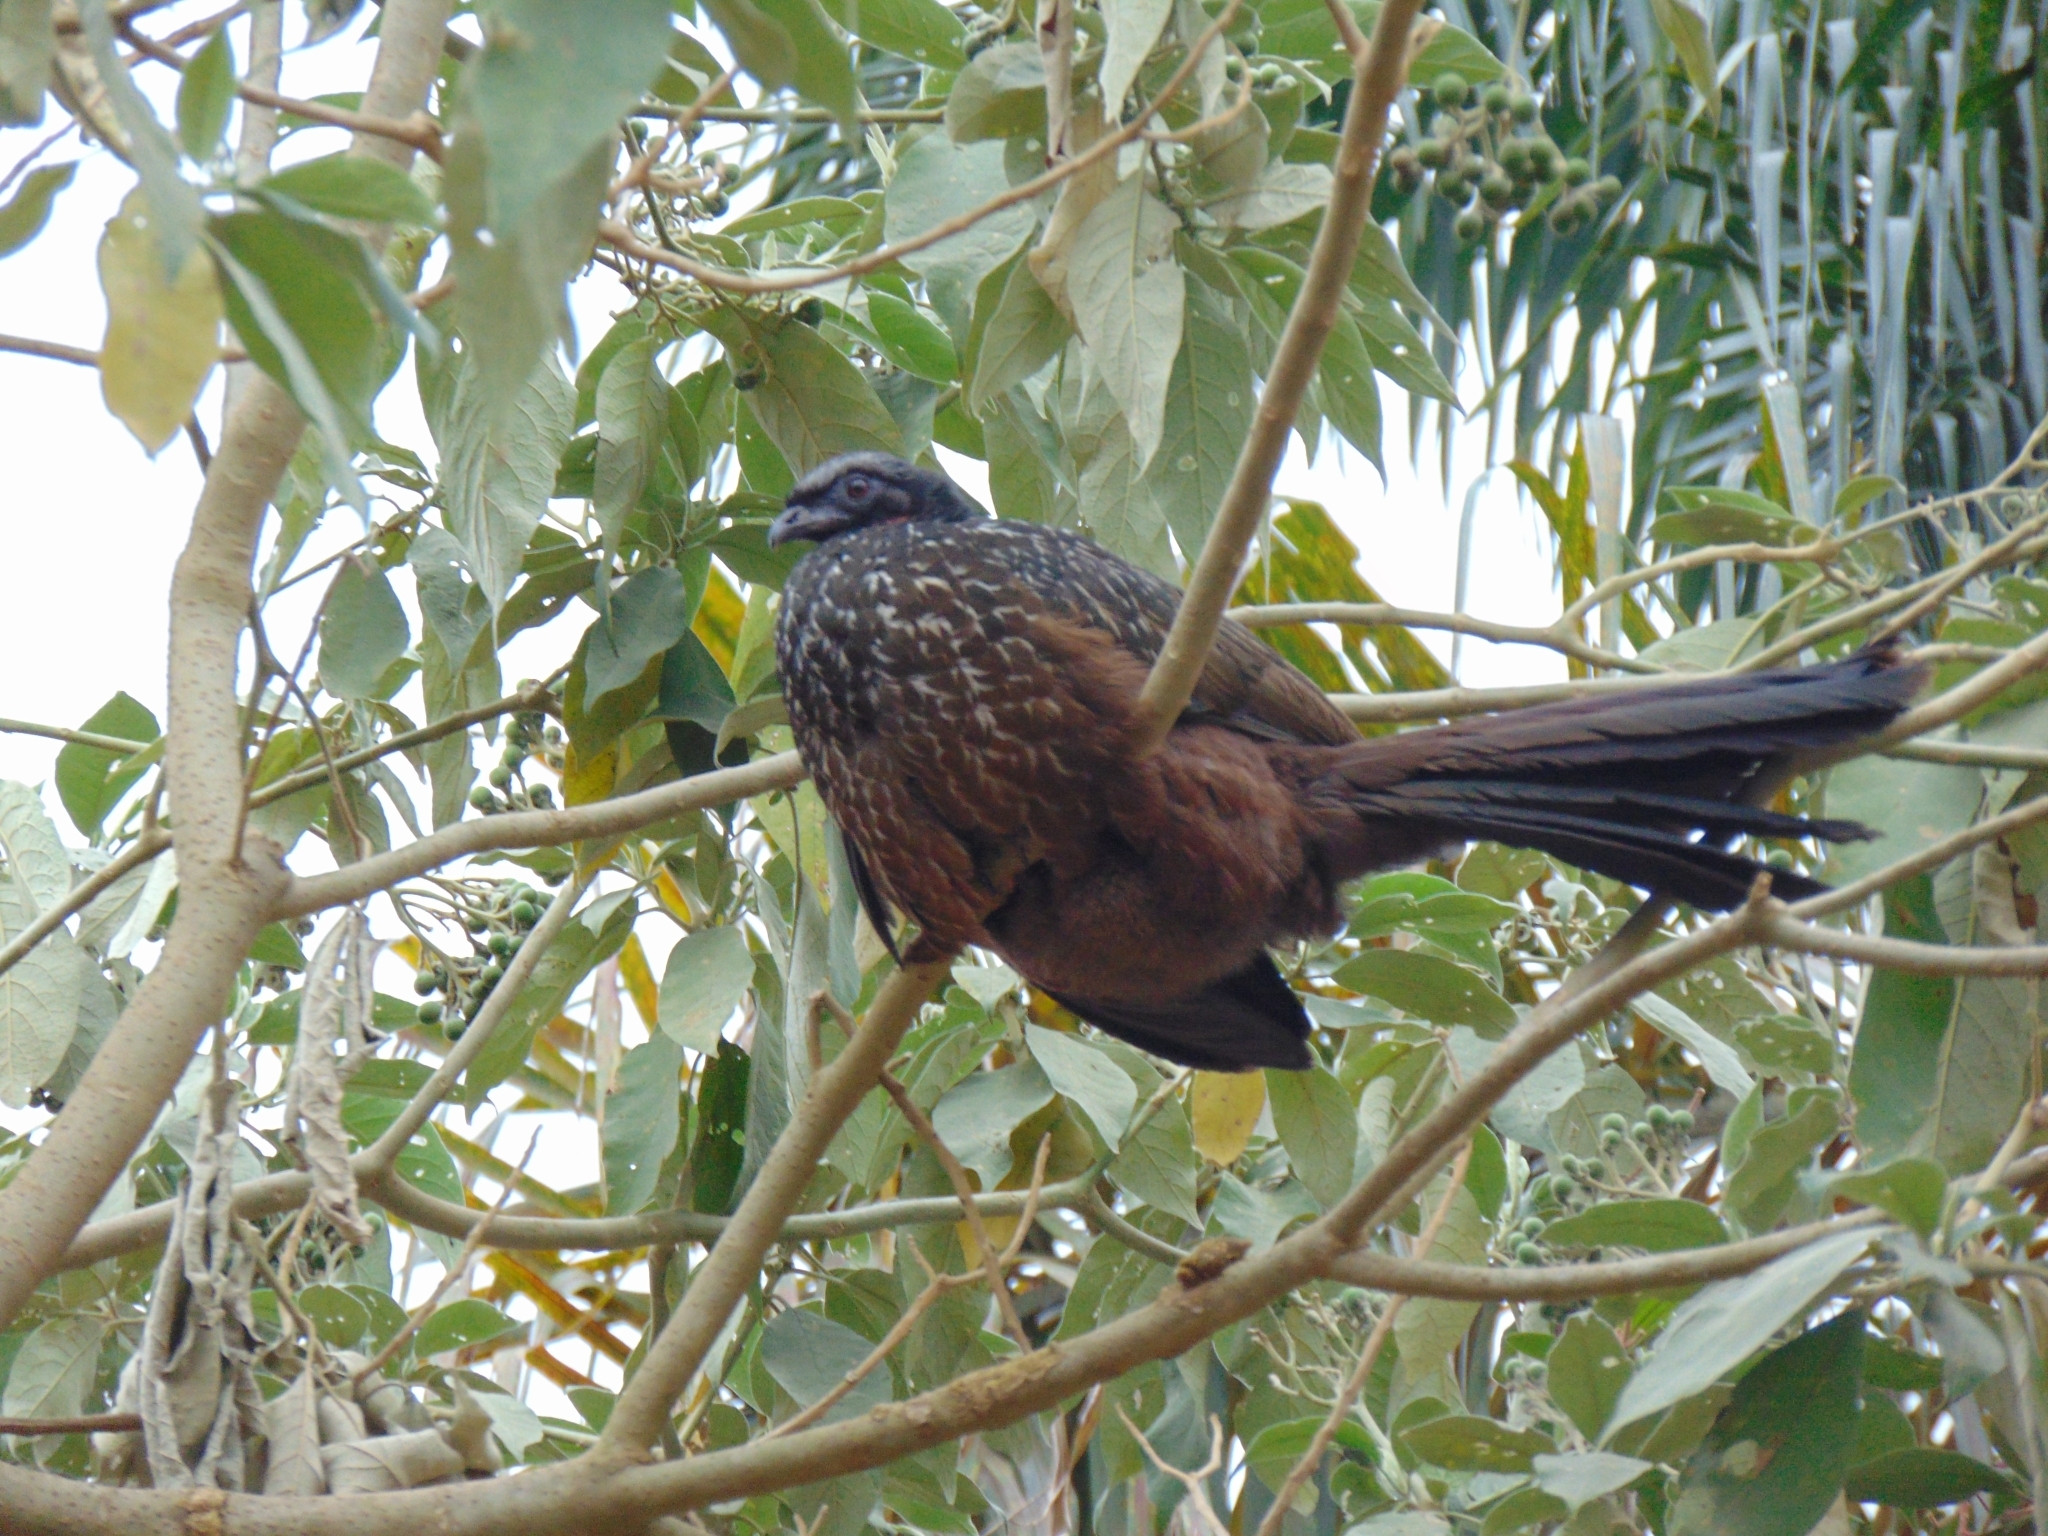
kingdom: Animalia
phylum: Chordata
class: Aves
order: Galliformes
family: Cracidae
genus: Penelope
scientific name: Penelope obscura
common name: Dusky-legged guan
